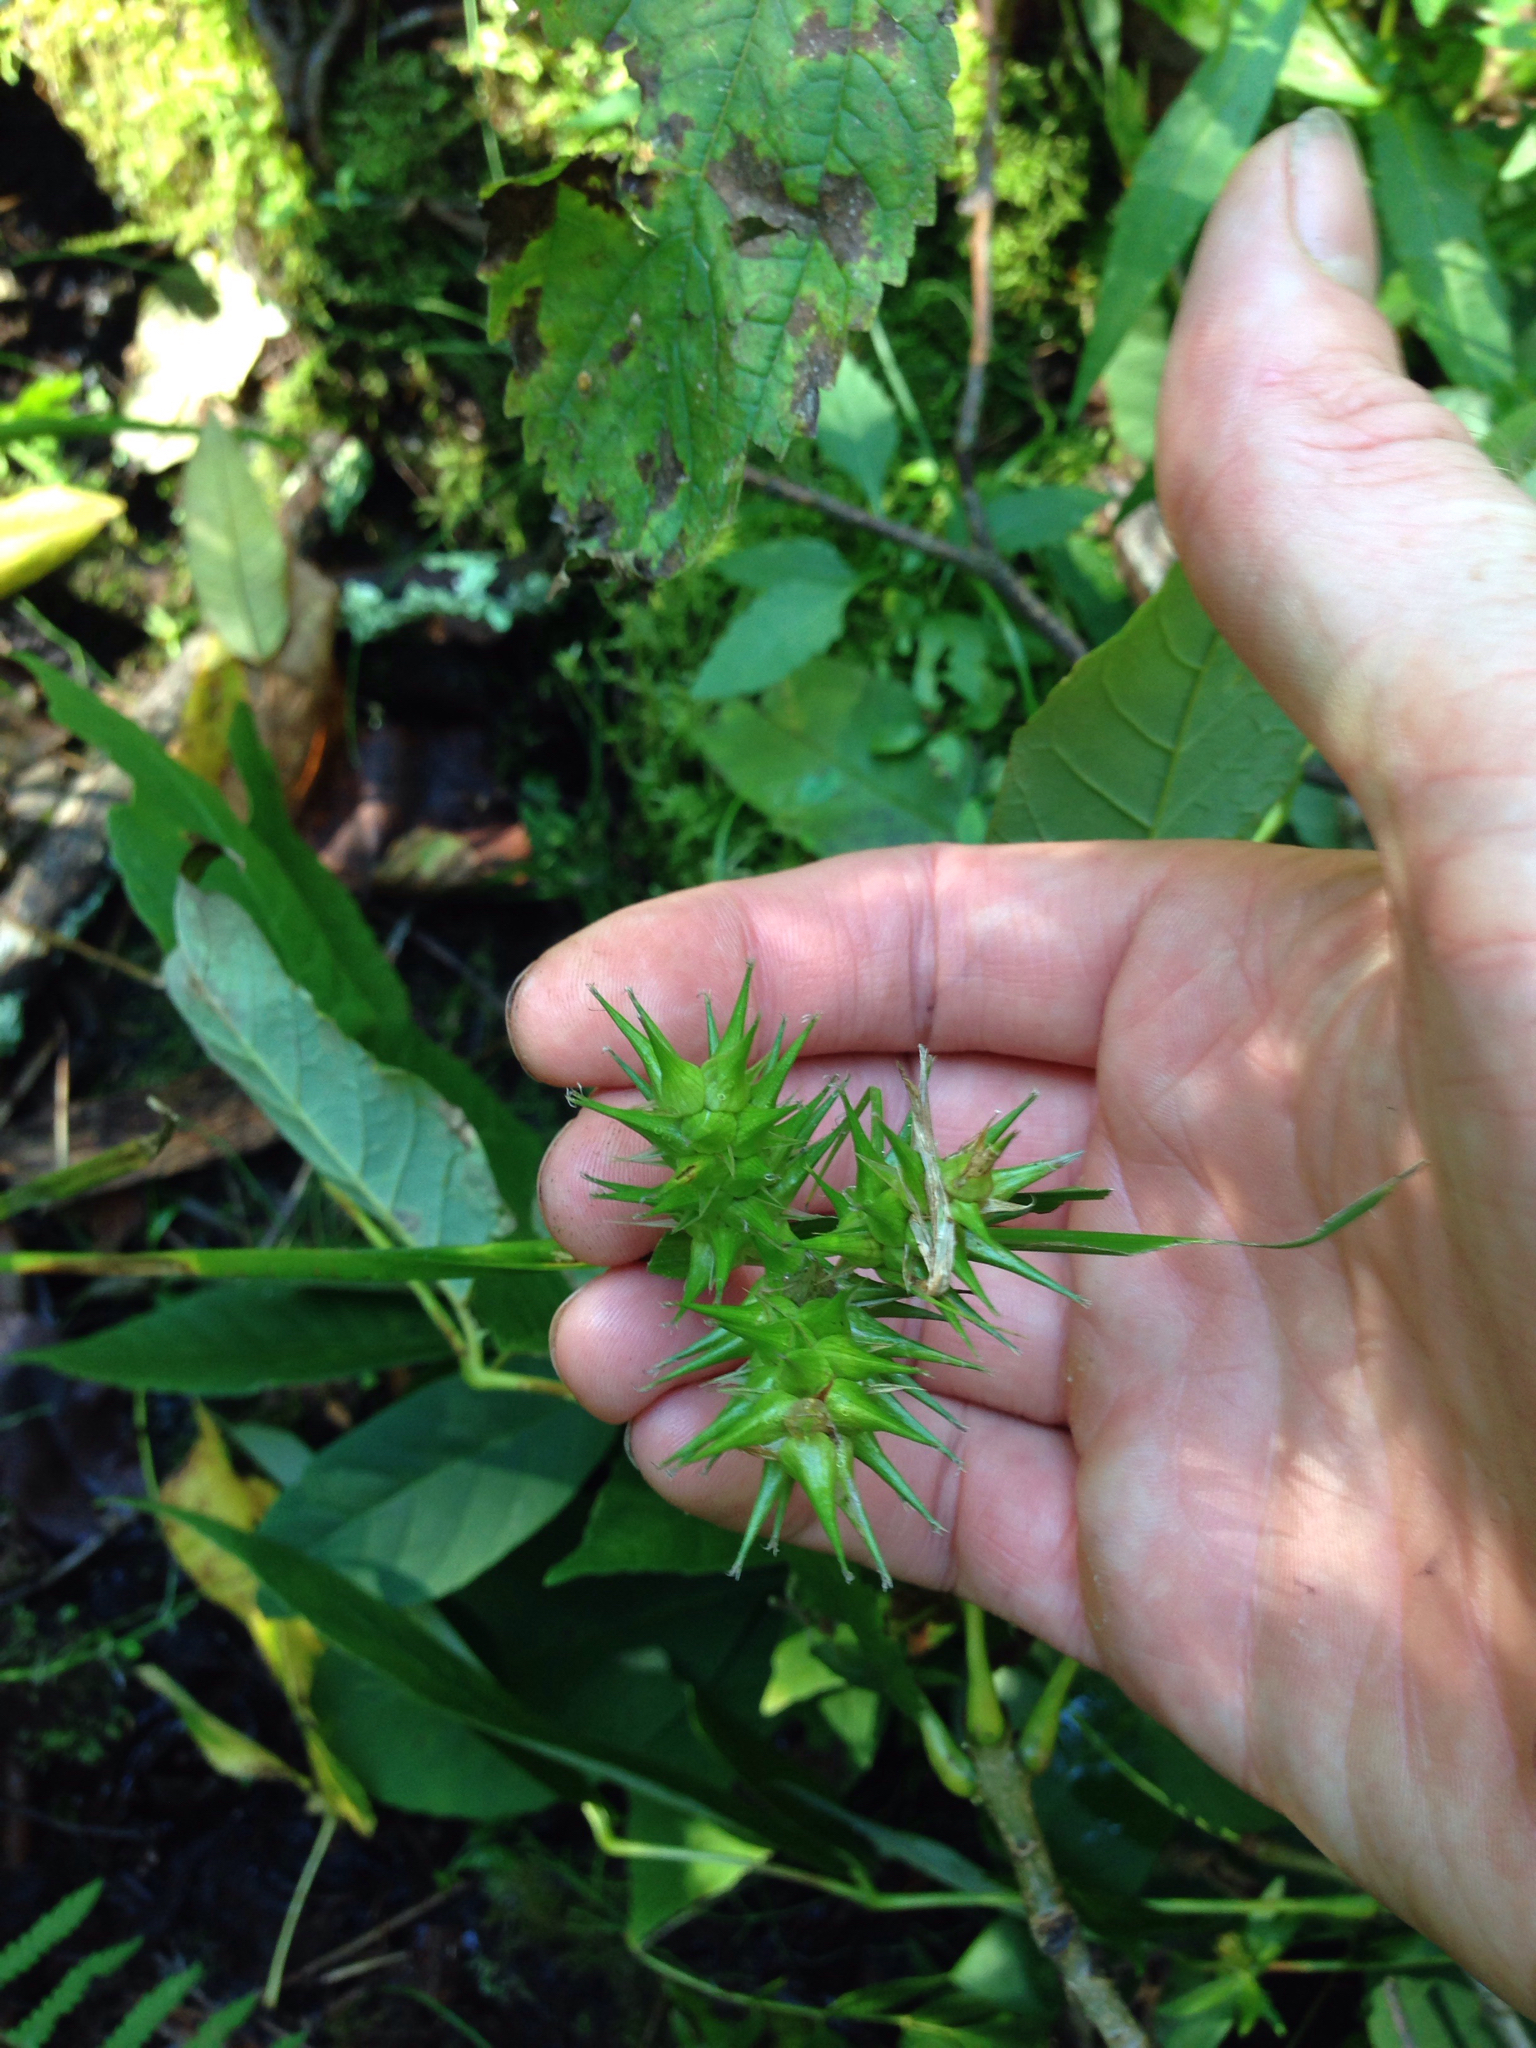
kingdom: Plantae
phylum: Tracheophyta
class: Liliopsida
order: Poales
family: Cyperaceae
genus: Carex
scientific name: Carex lupulina
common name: Hop sedge
